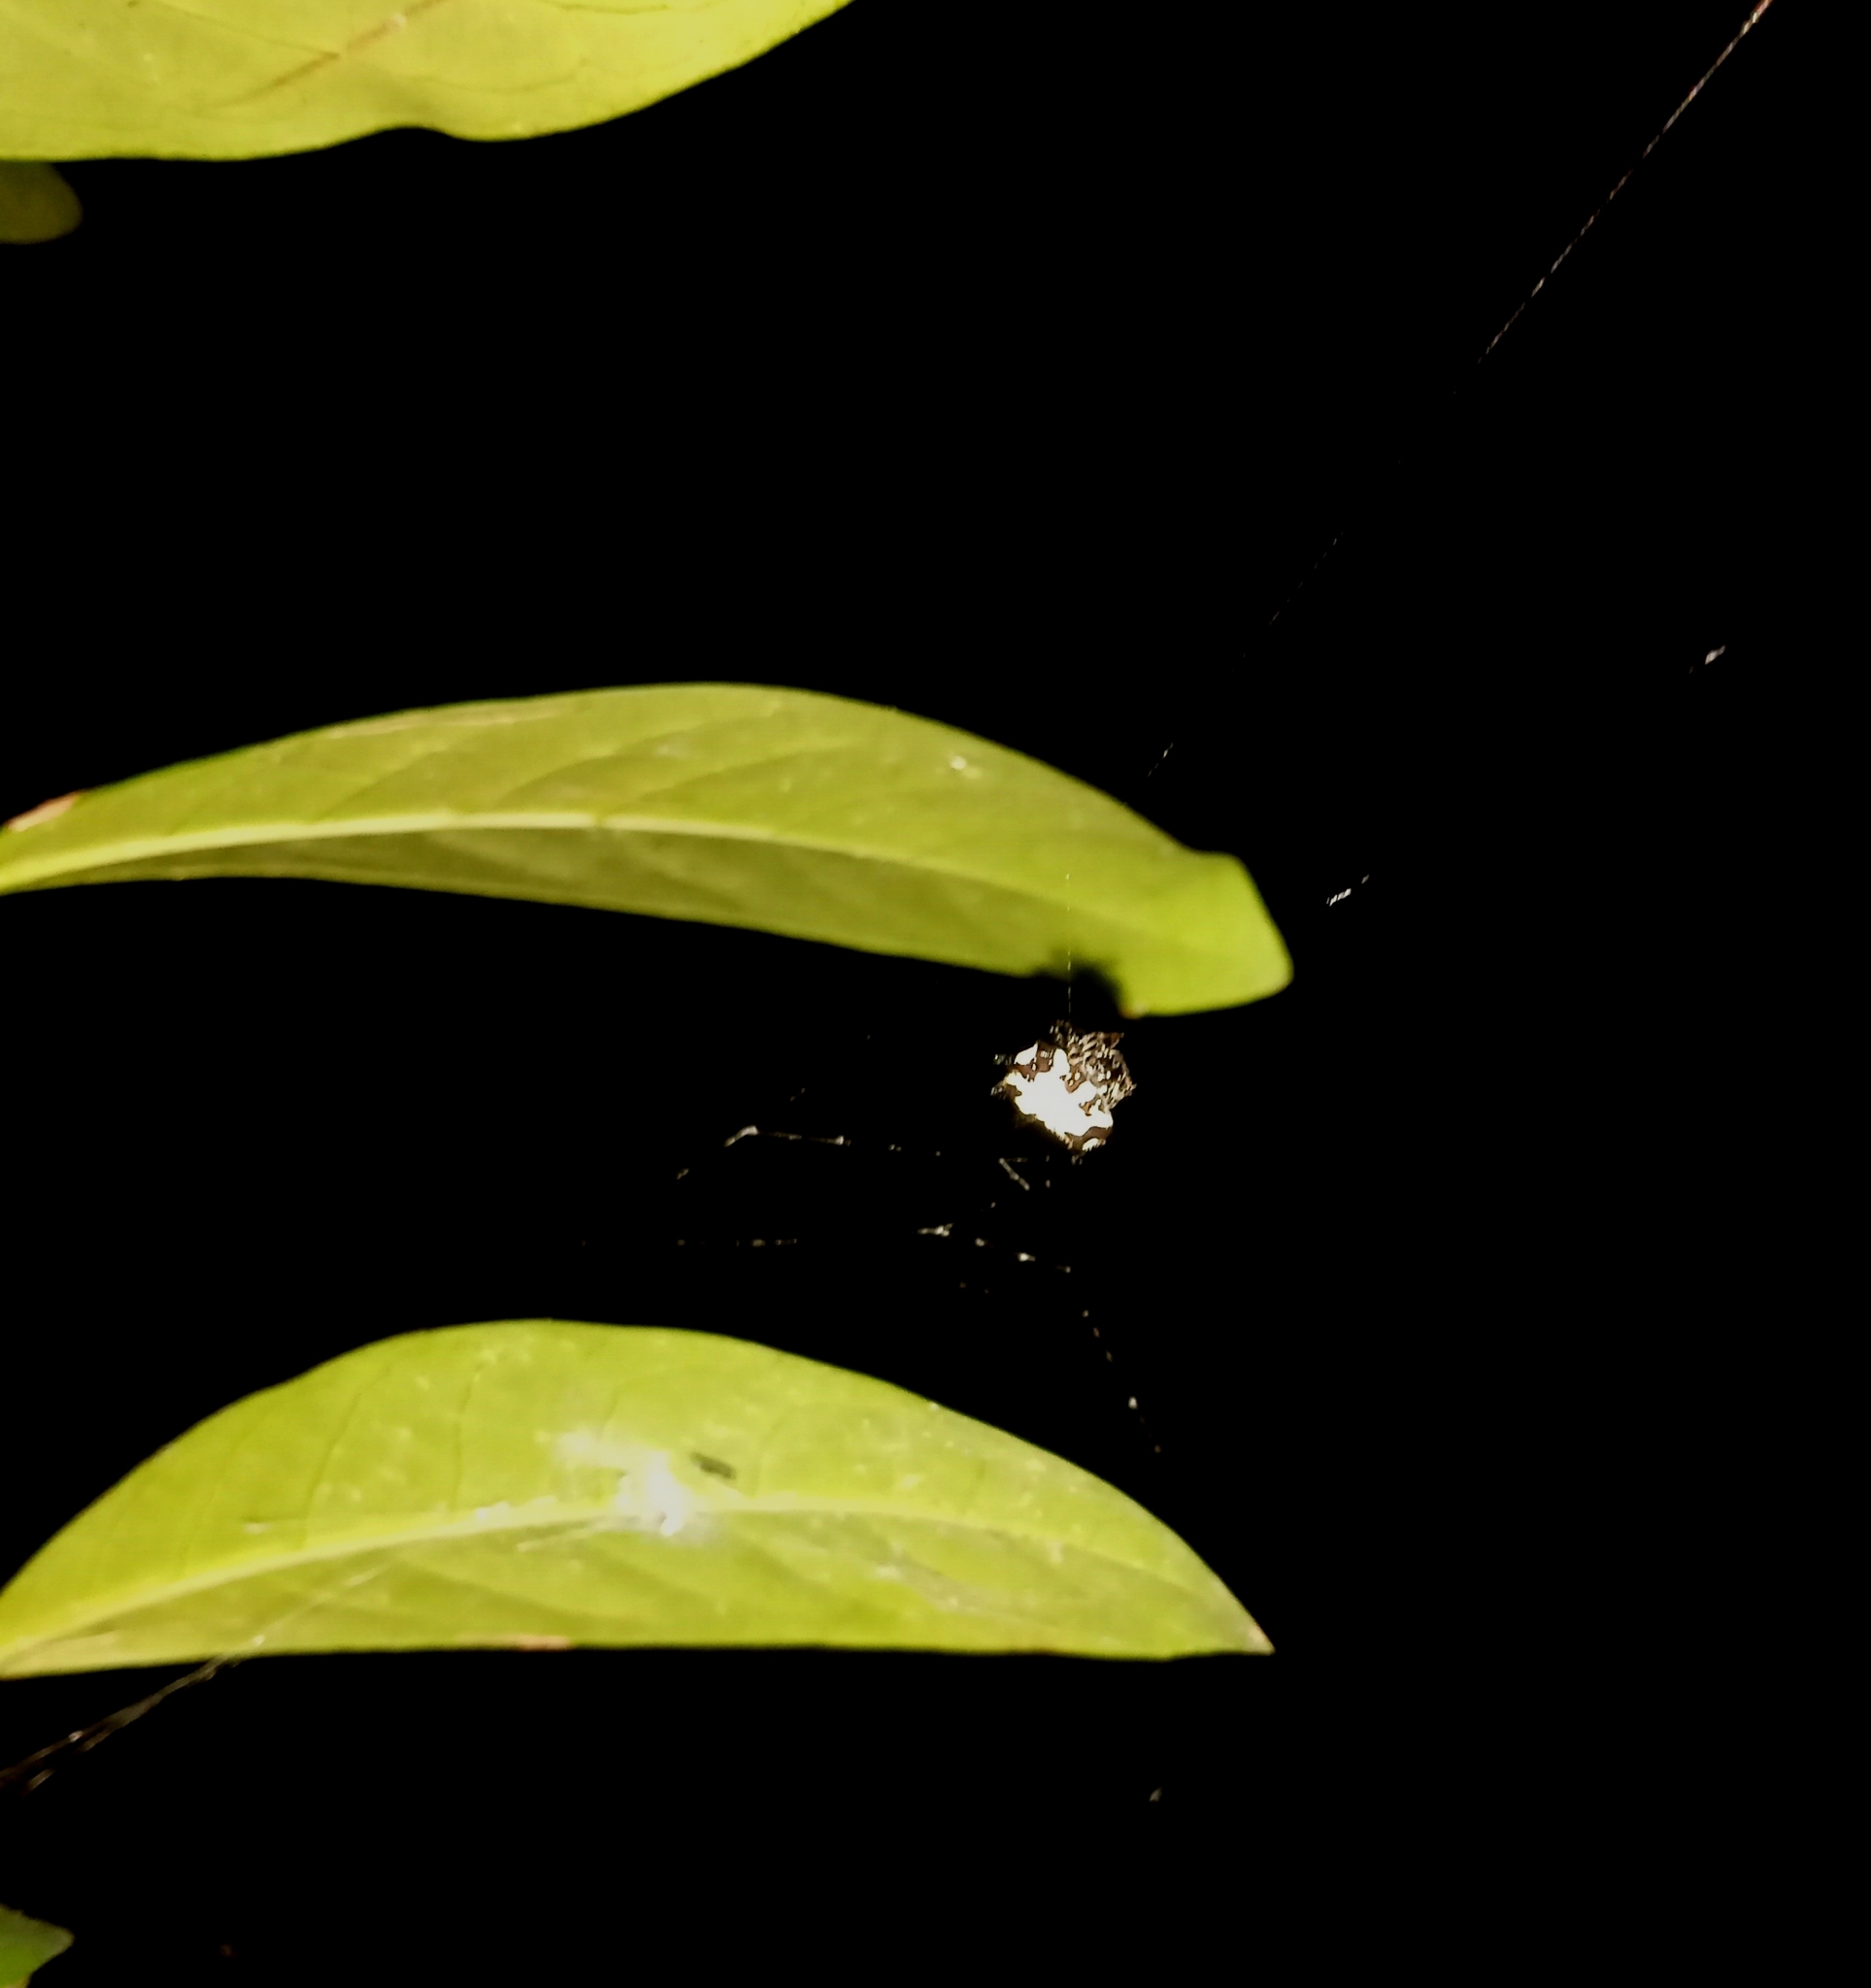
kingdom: Animalia
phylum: Arthropoda
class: Arachnida
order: Araneae
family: Araneidae
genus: Gasteracantha
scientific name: Gasteracantha kuhli
